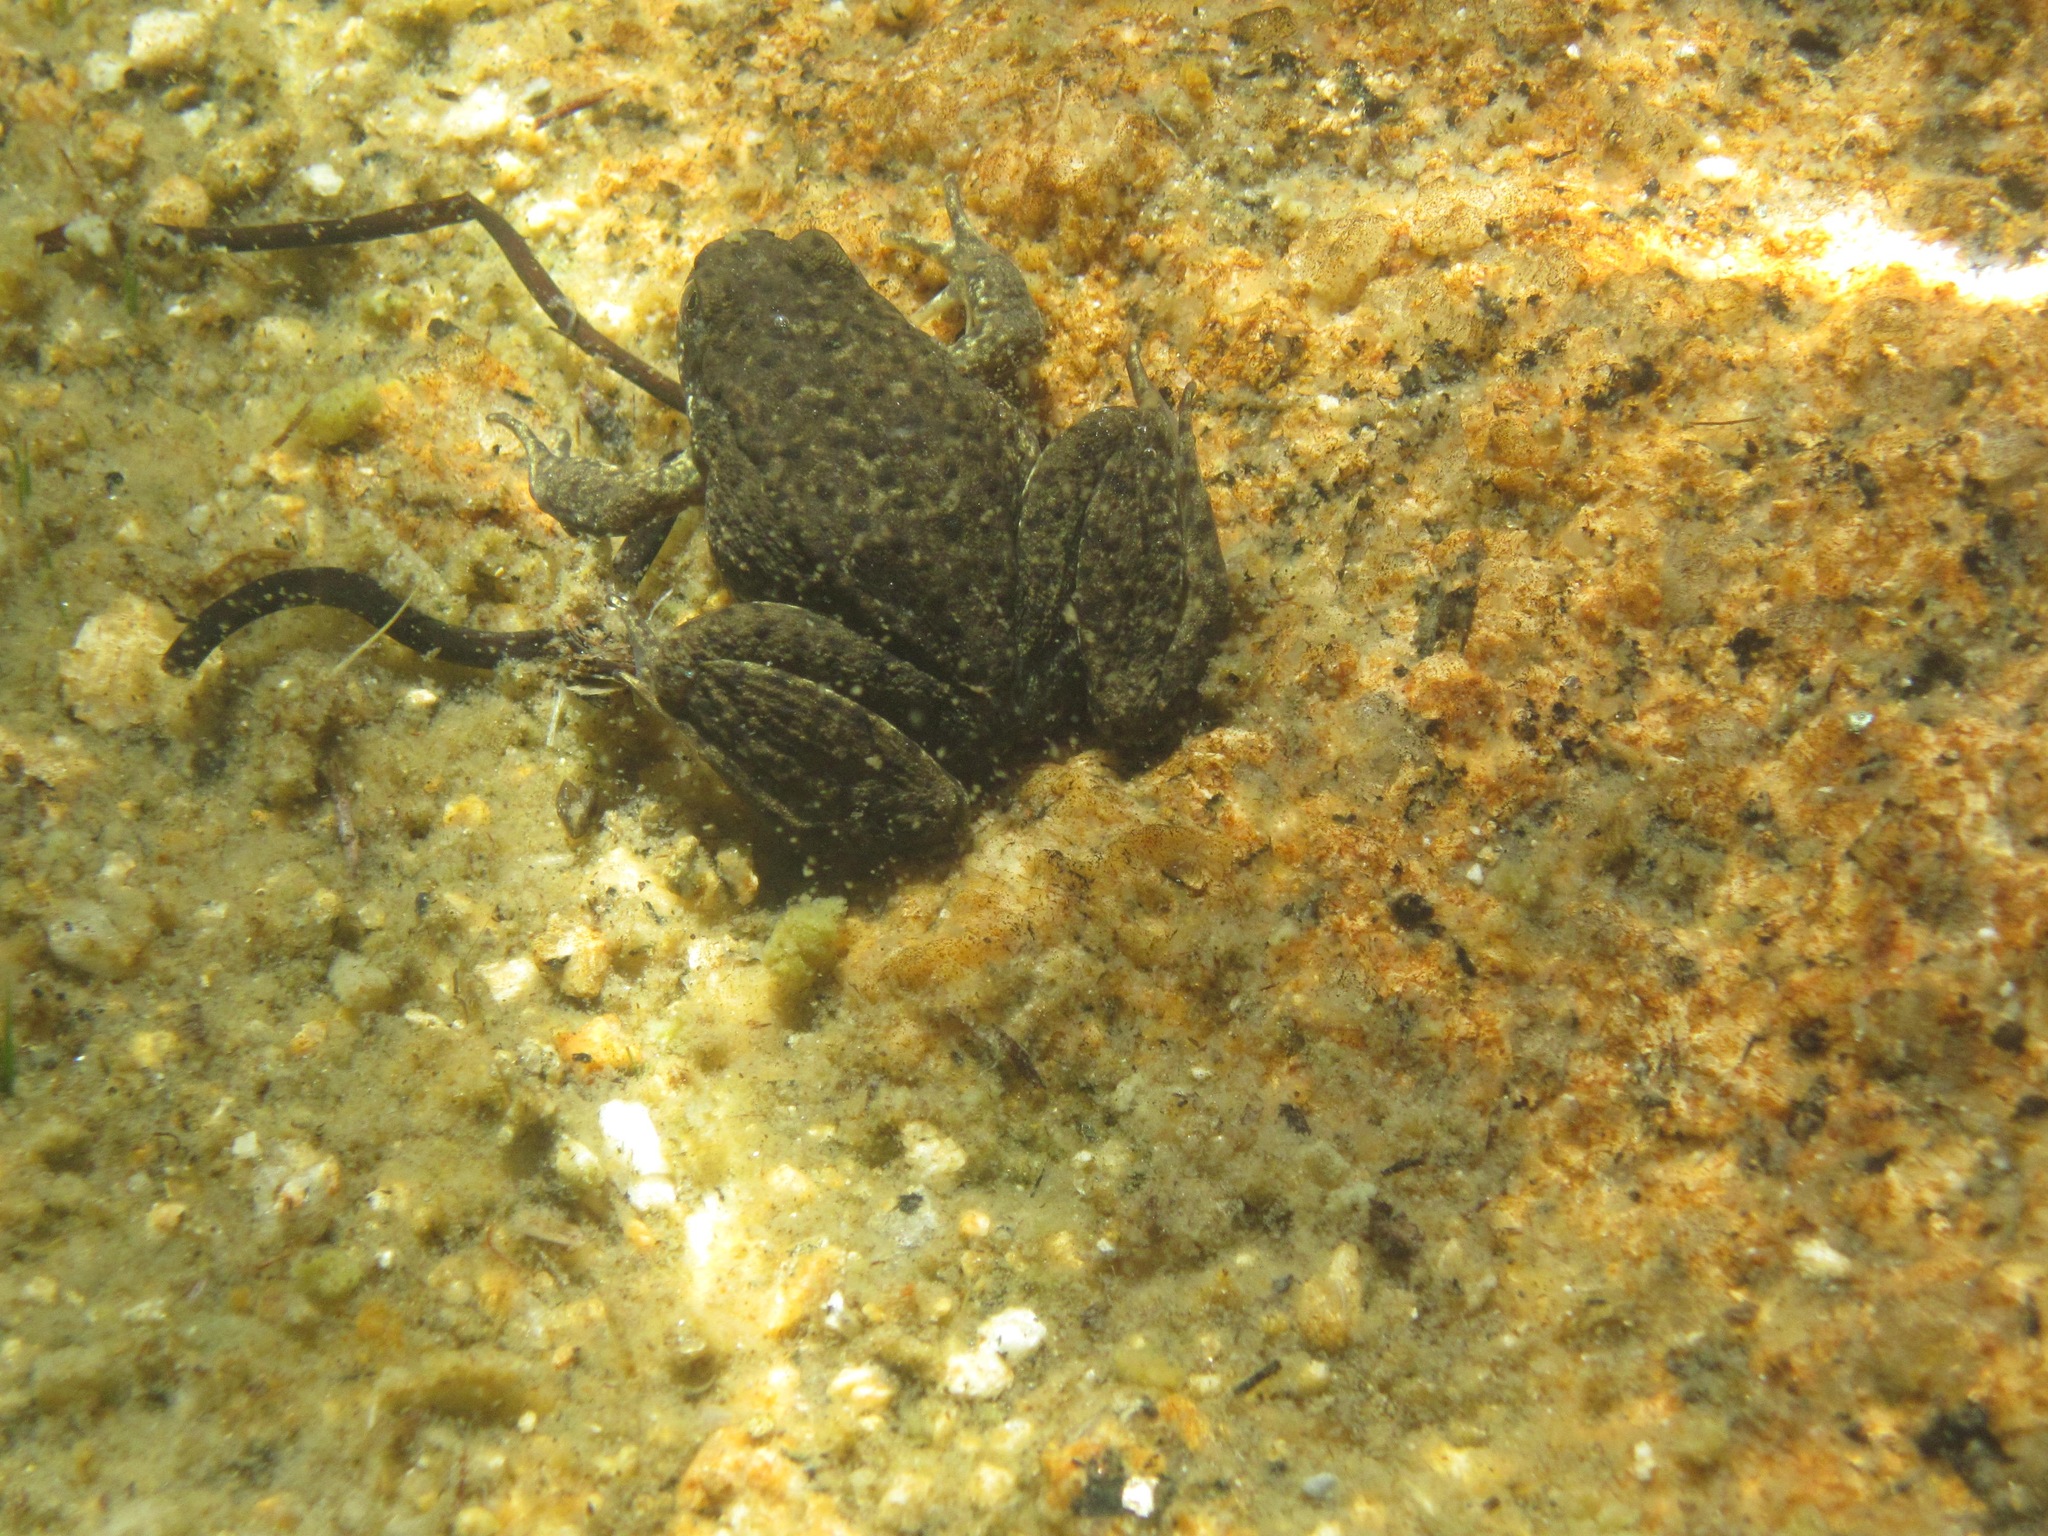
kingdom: Animalia
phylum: Chordata
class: Amphibia
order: Anura
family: Ranidae
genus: Rana
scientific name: Rana sierrae
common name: Sierra nevada yellow-legged frog
